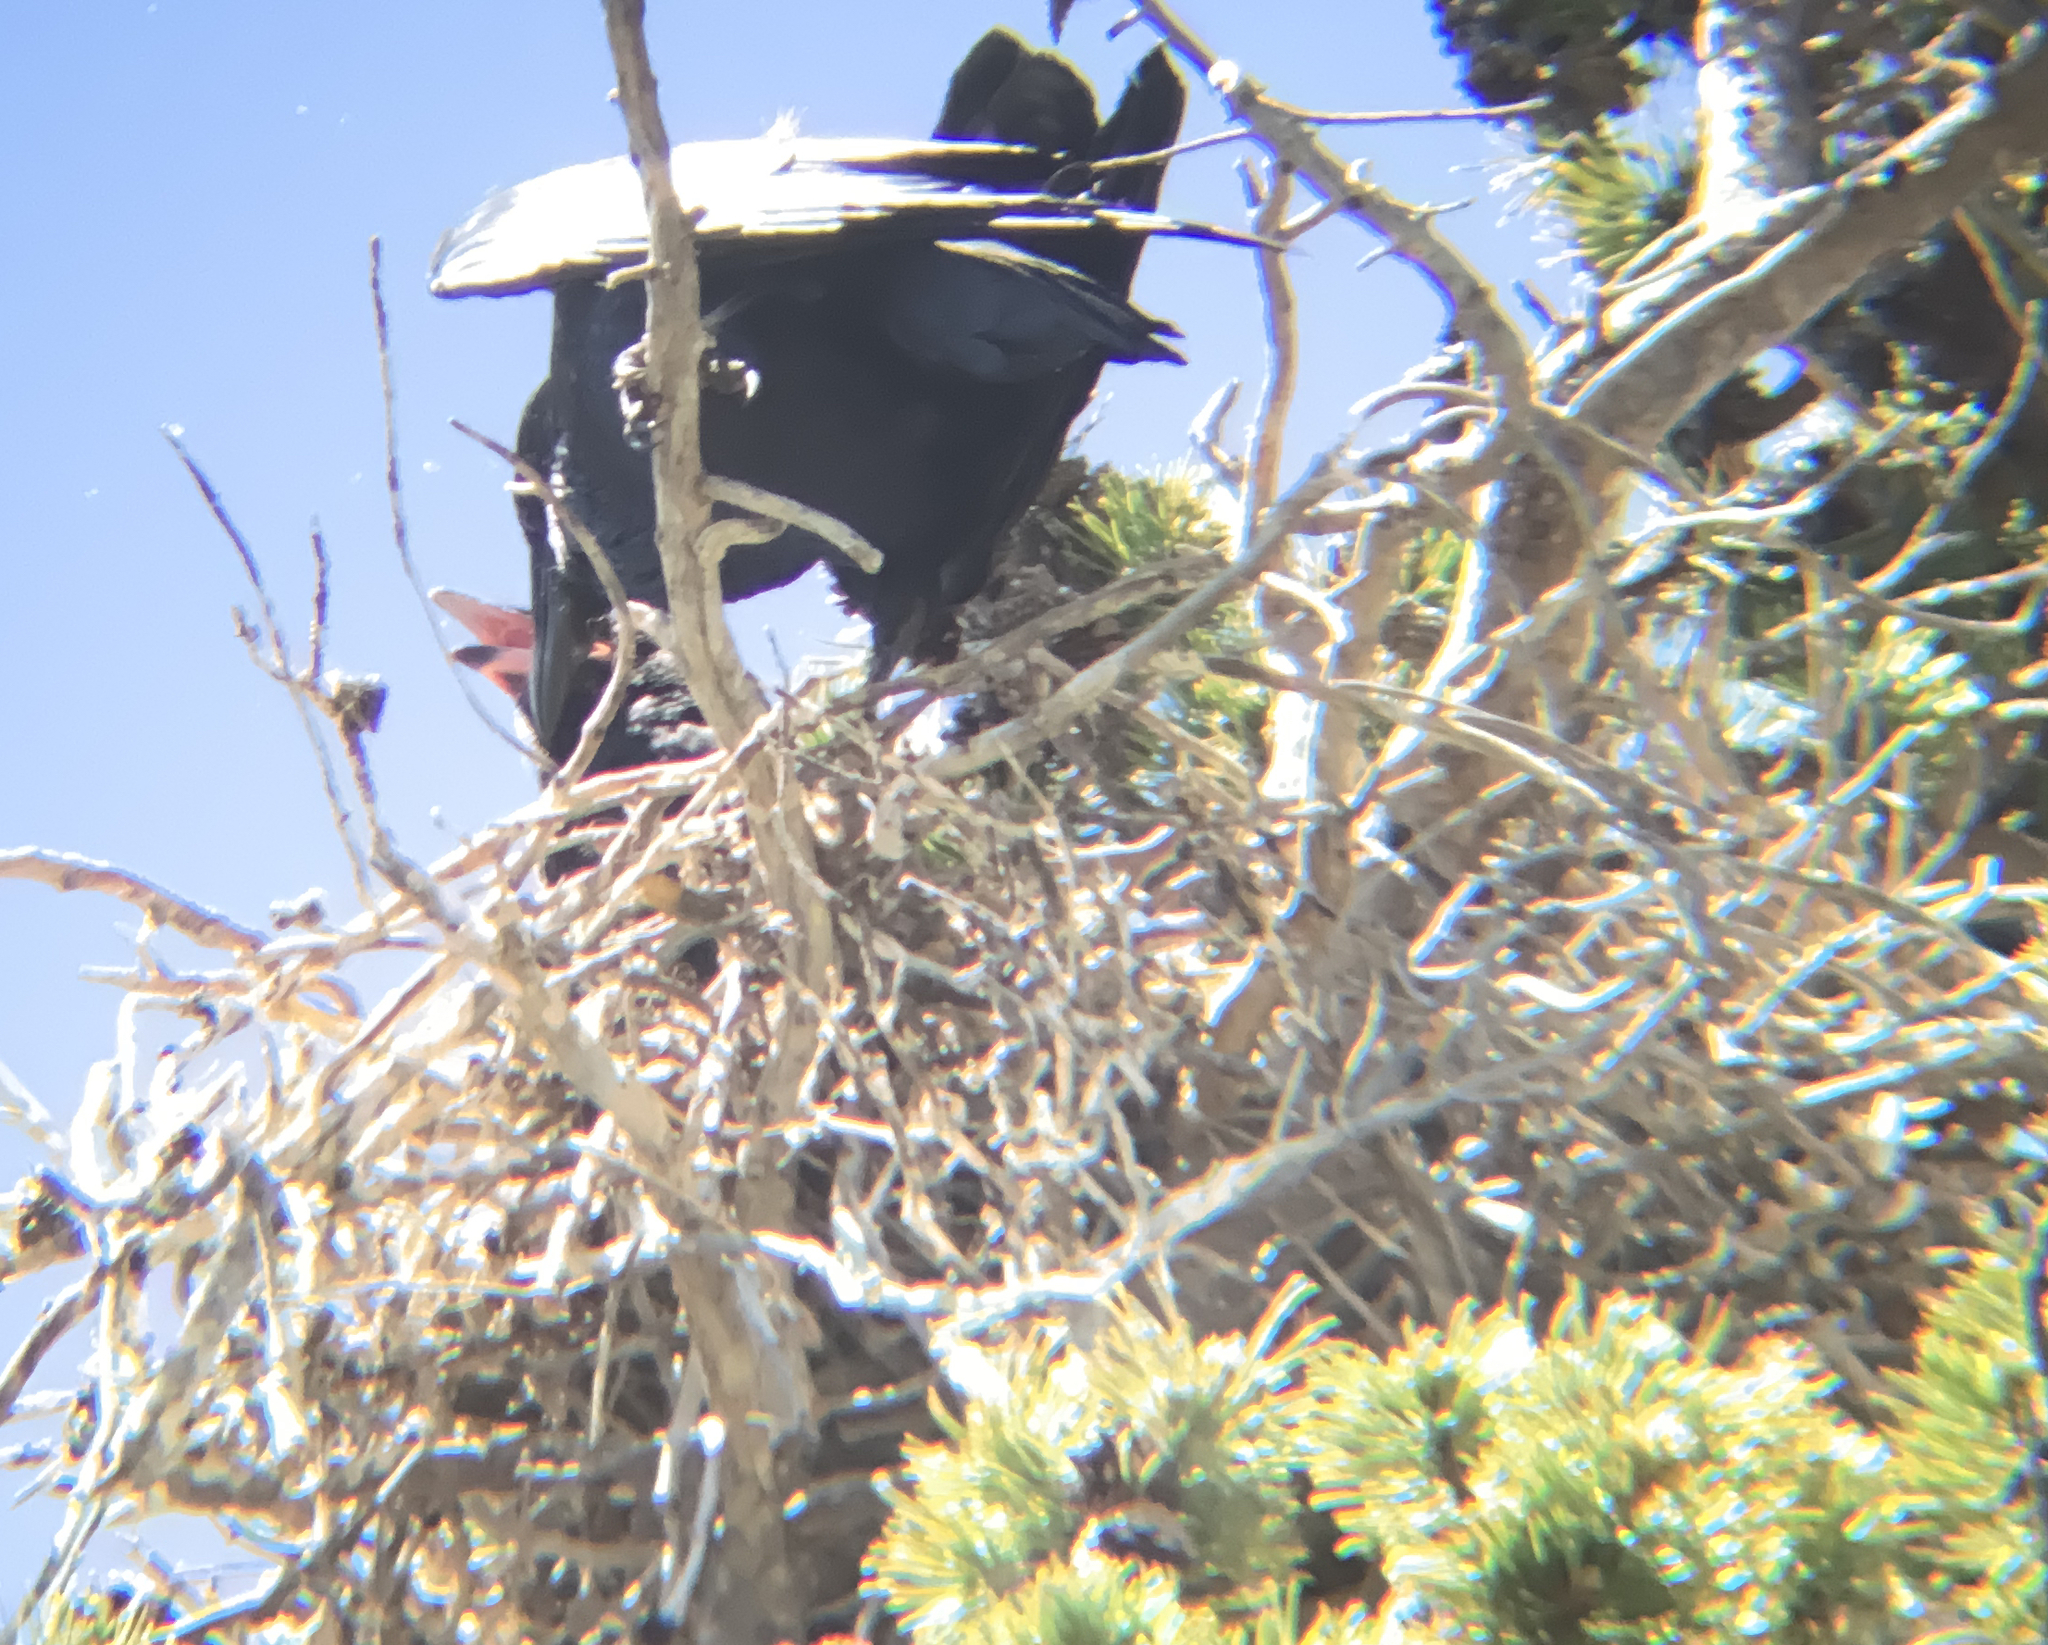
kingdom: Animalia
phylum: Chordata
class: Aves
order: Passeriformes
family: Corvidae
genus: Corvus
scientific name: Corvus corax
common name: Common raven
